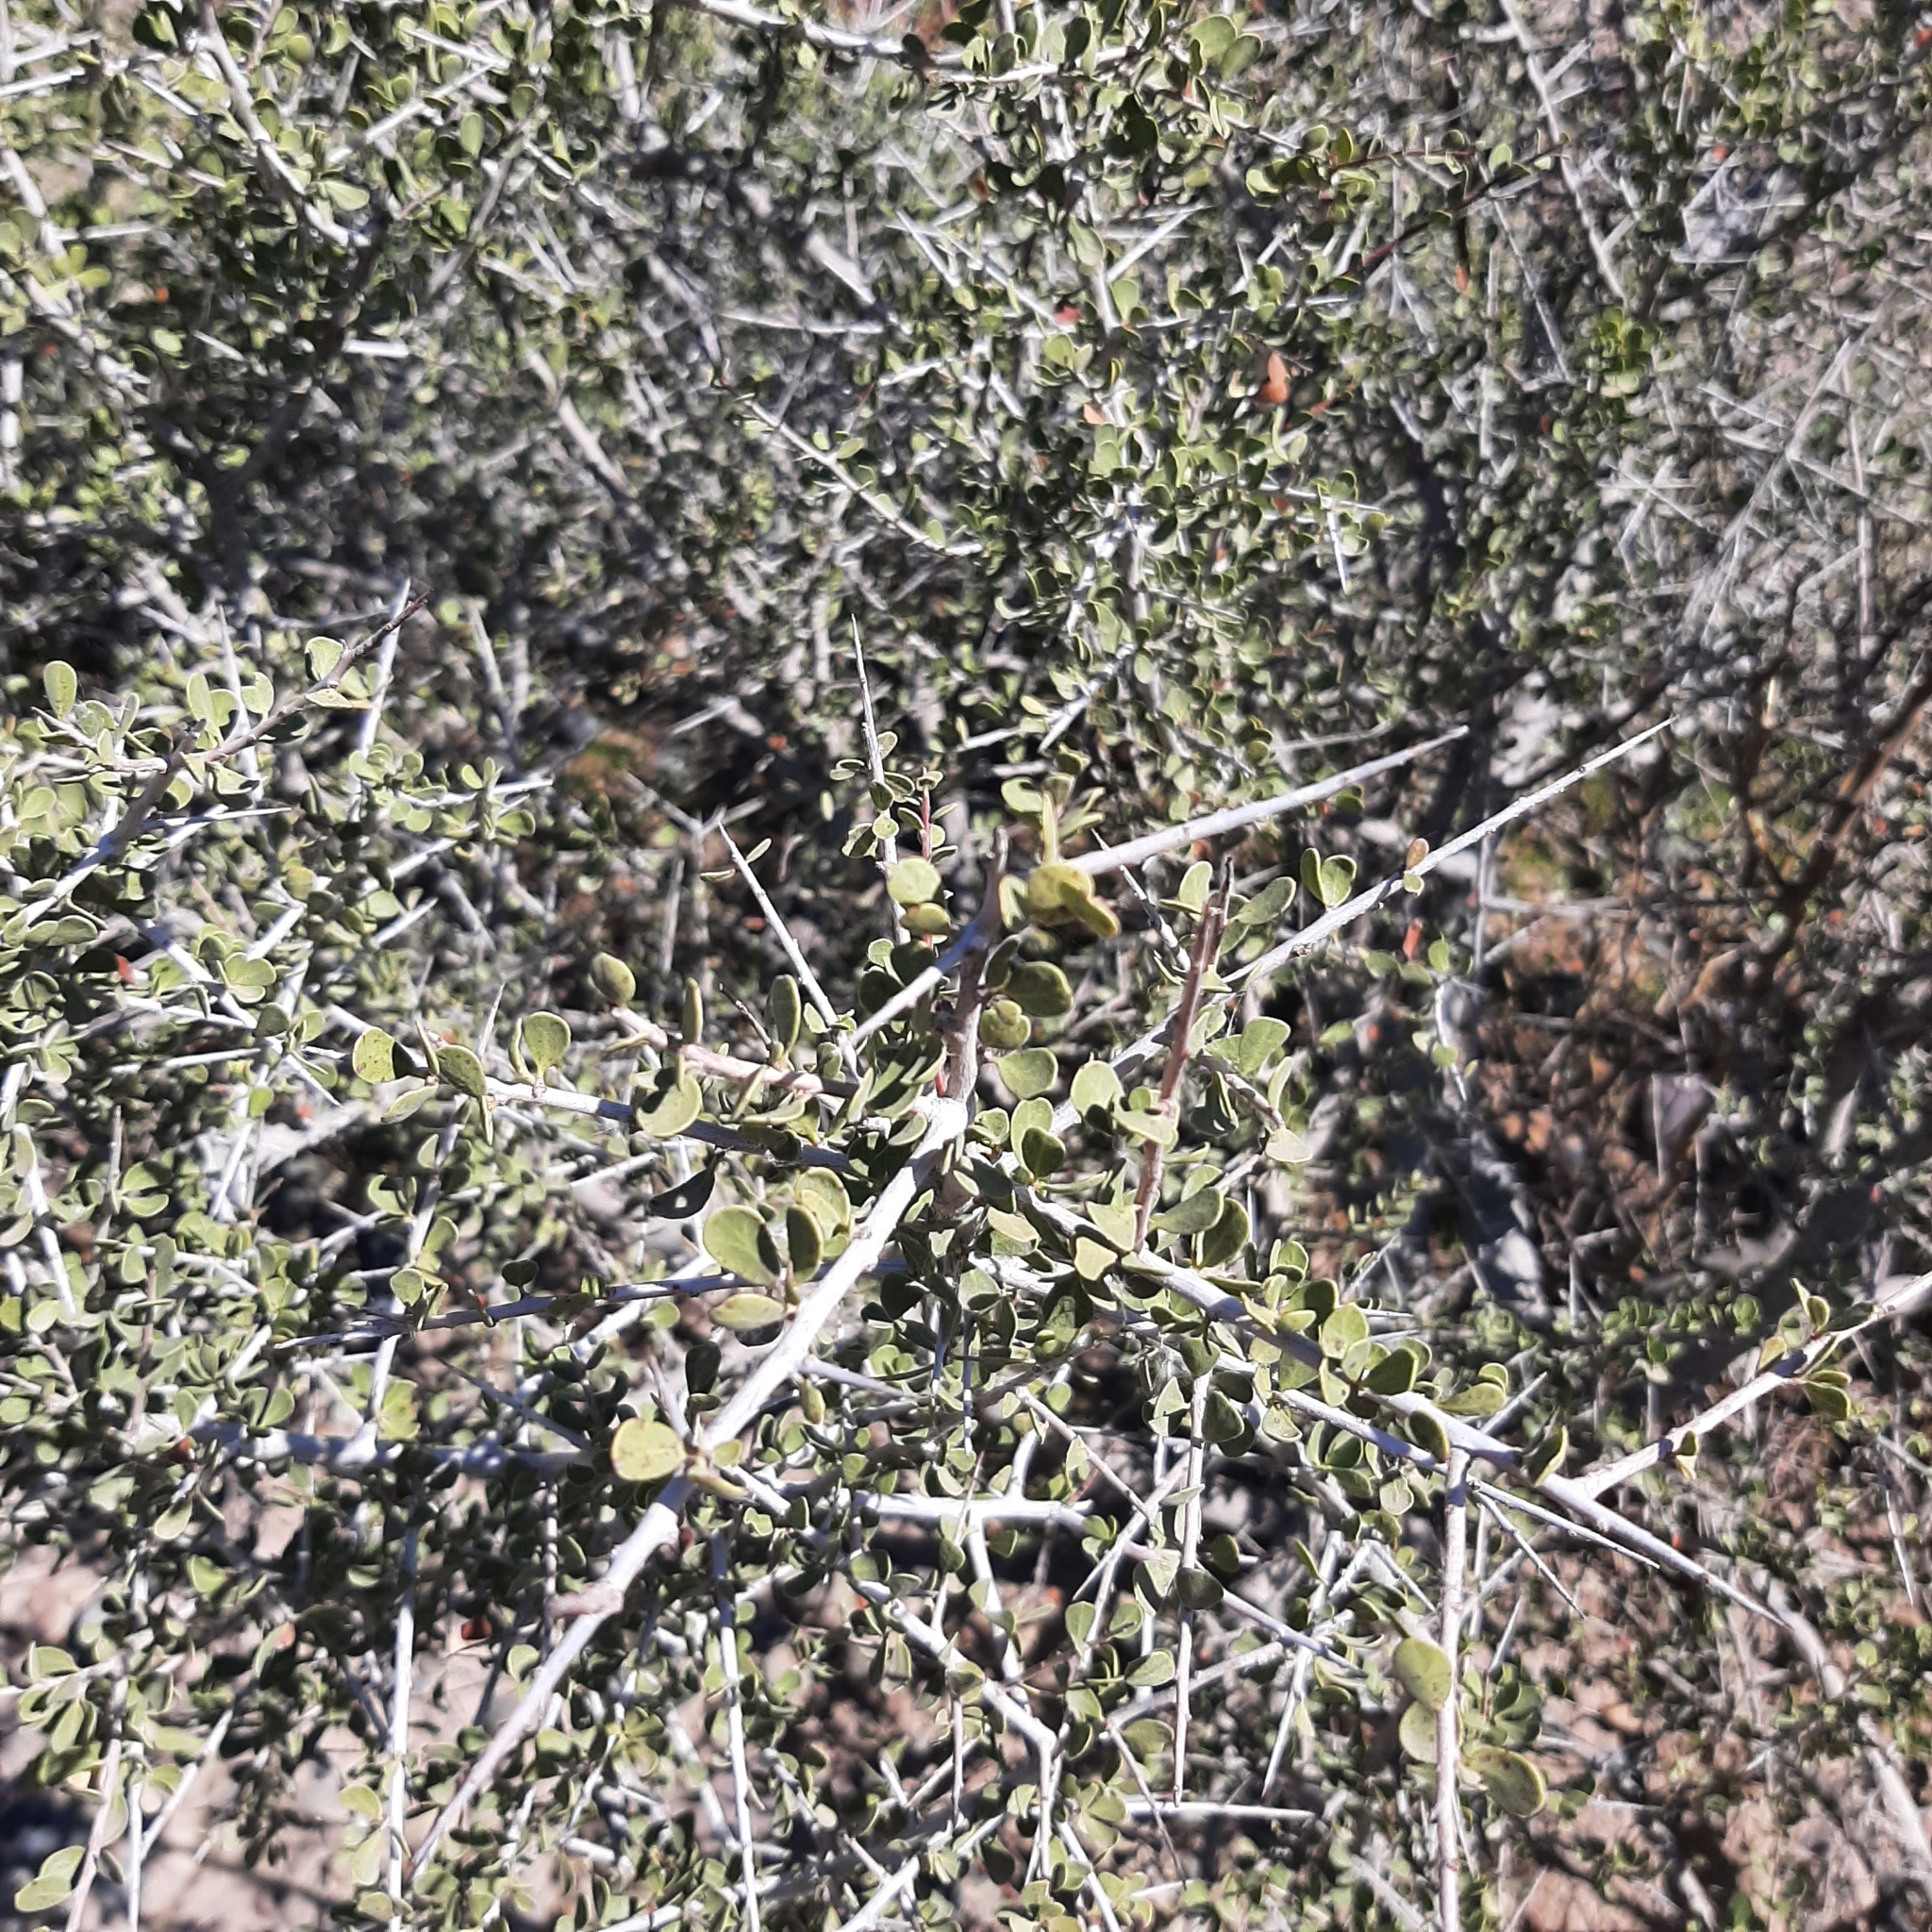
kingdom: Plantae
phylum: Tracheophyta
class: Magnoliopsida
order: Sapindales
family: Anacardiaceae
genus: Schinus
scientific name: Schinus johnstonii
